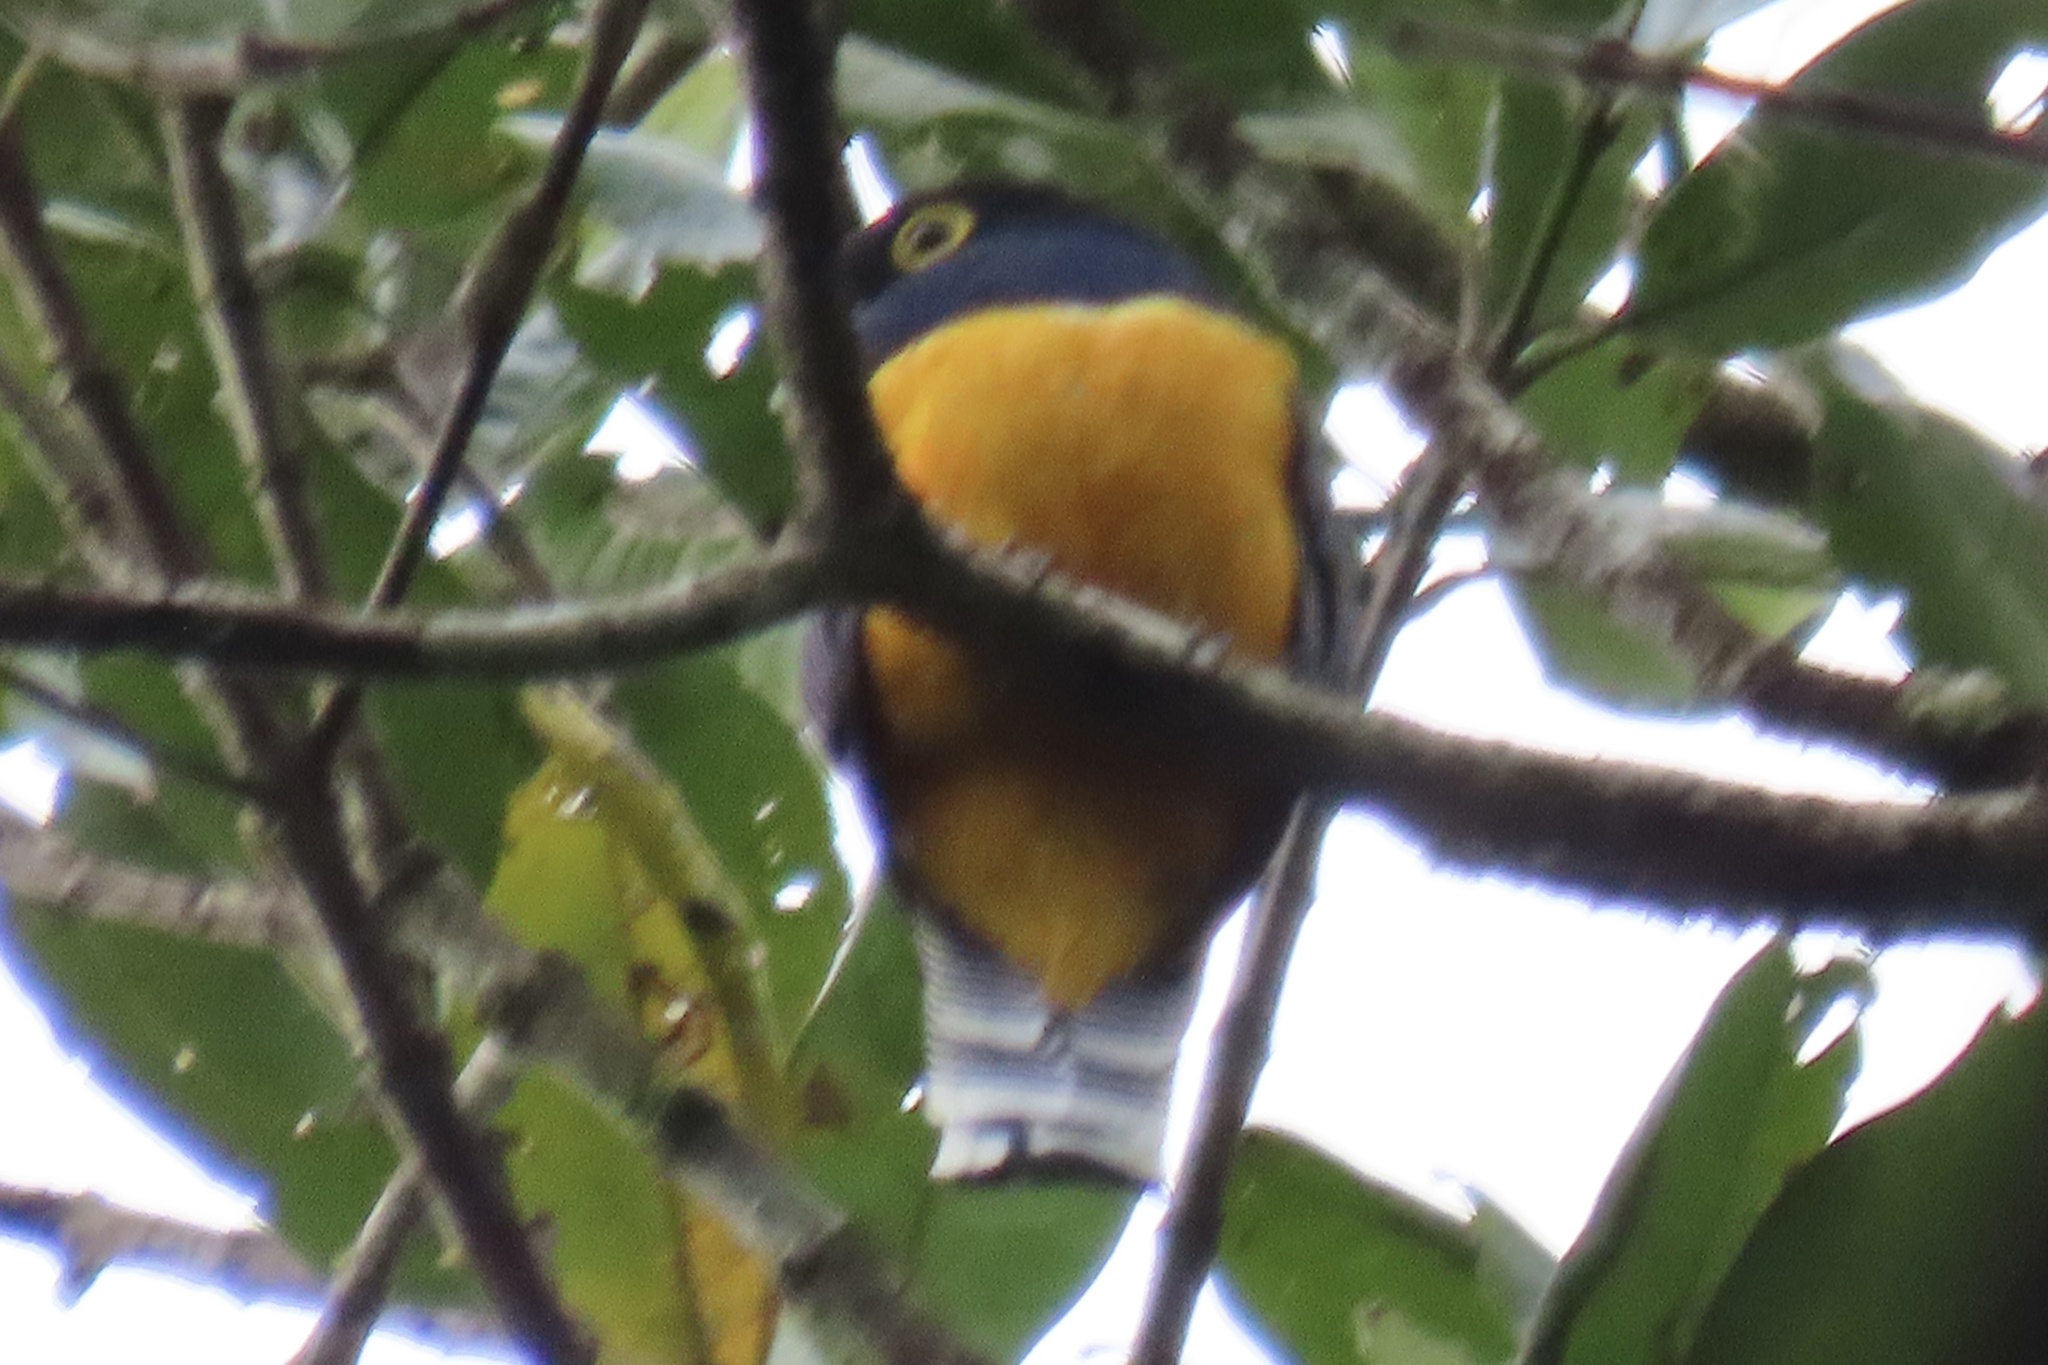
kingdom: Animalia
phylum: Chordata
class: Aves
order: Trogoniformes
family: Trogonidae
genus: Trogon
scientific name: Trogon caligatus
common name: Gartered trogon
